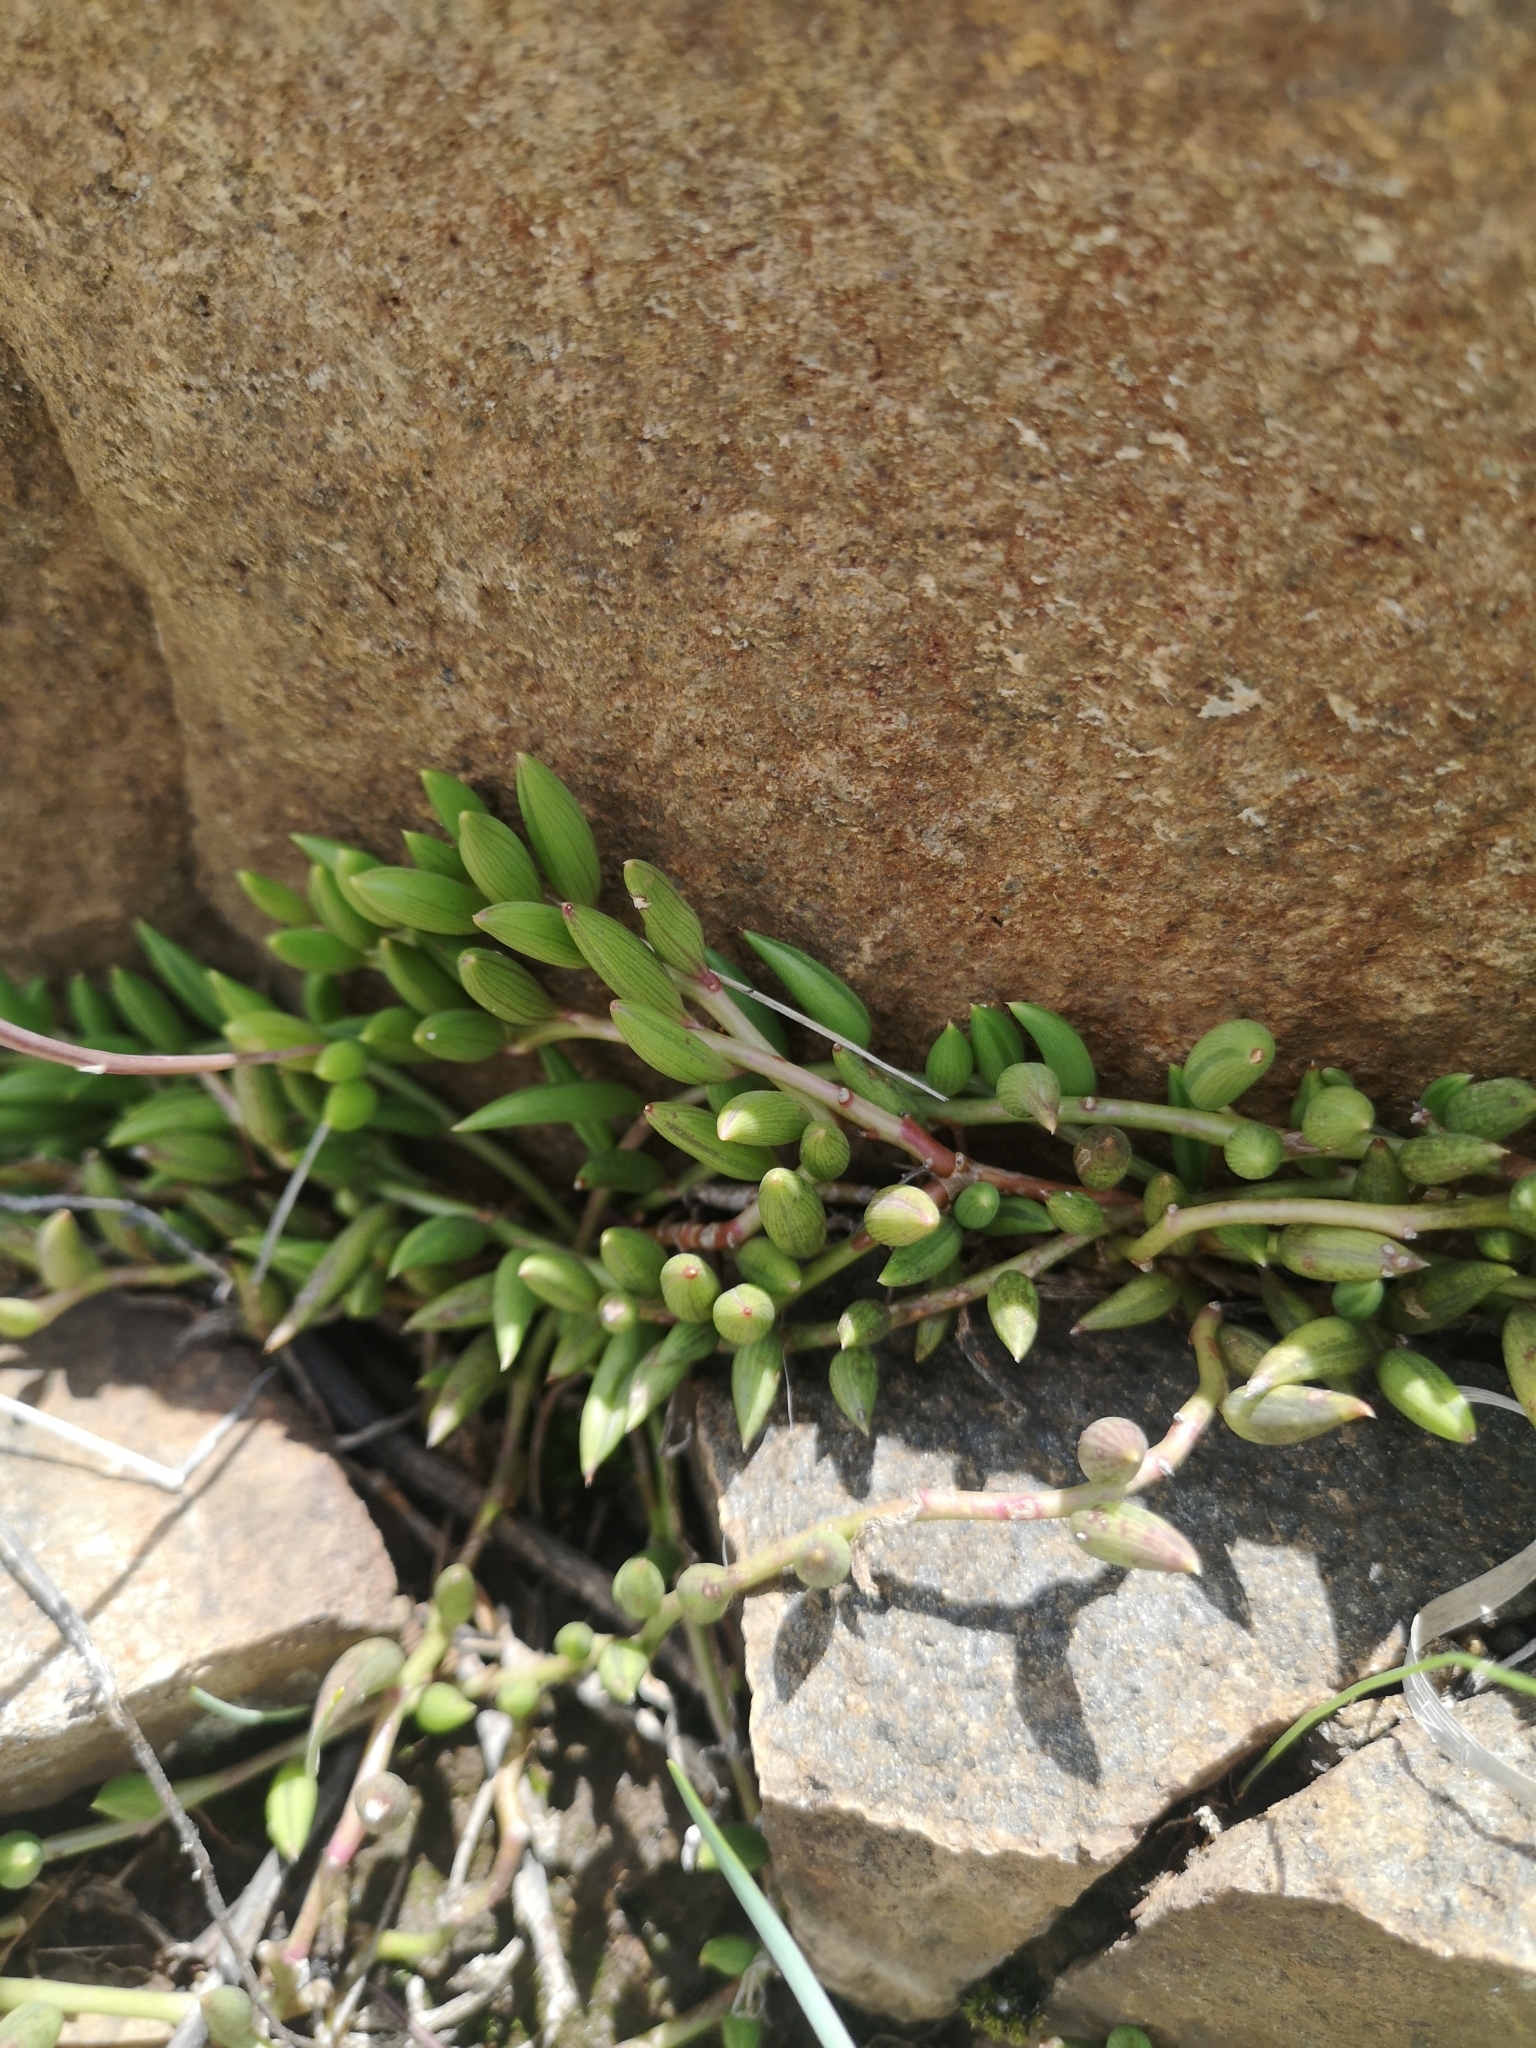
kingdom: Plantae
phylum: Tracheophyta
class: Magnoliopsida
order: Asterales
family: Asteraceae
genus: Curio
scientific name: Curio radicans
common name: Creeping-berry
